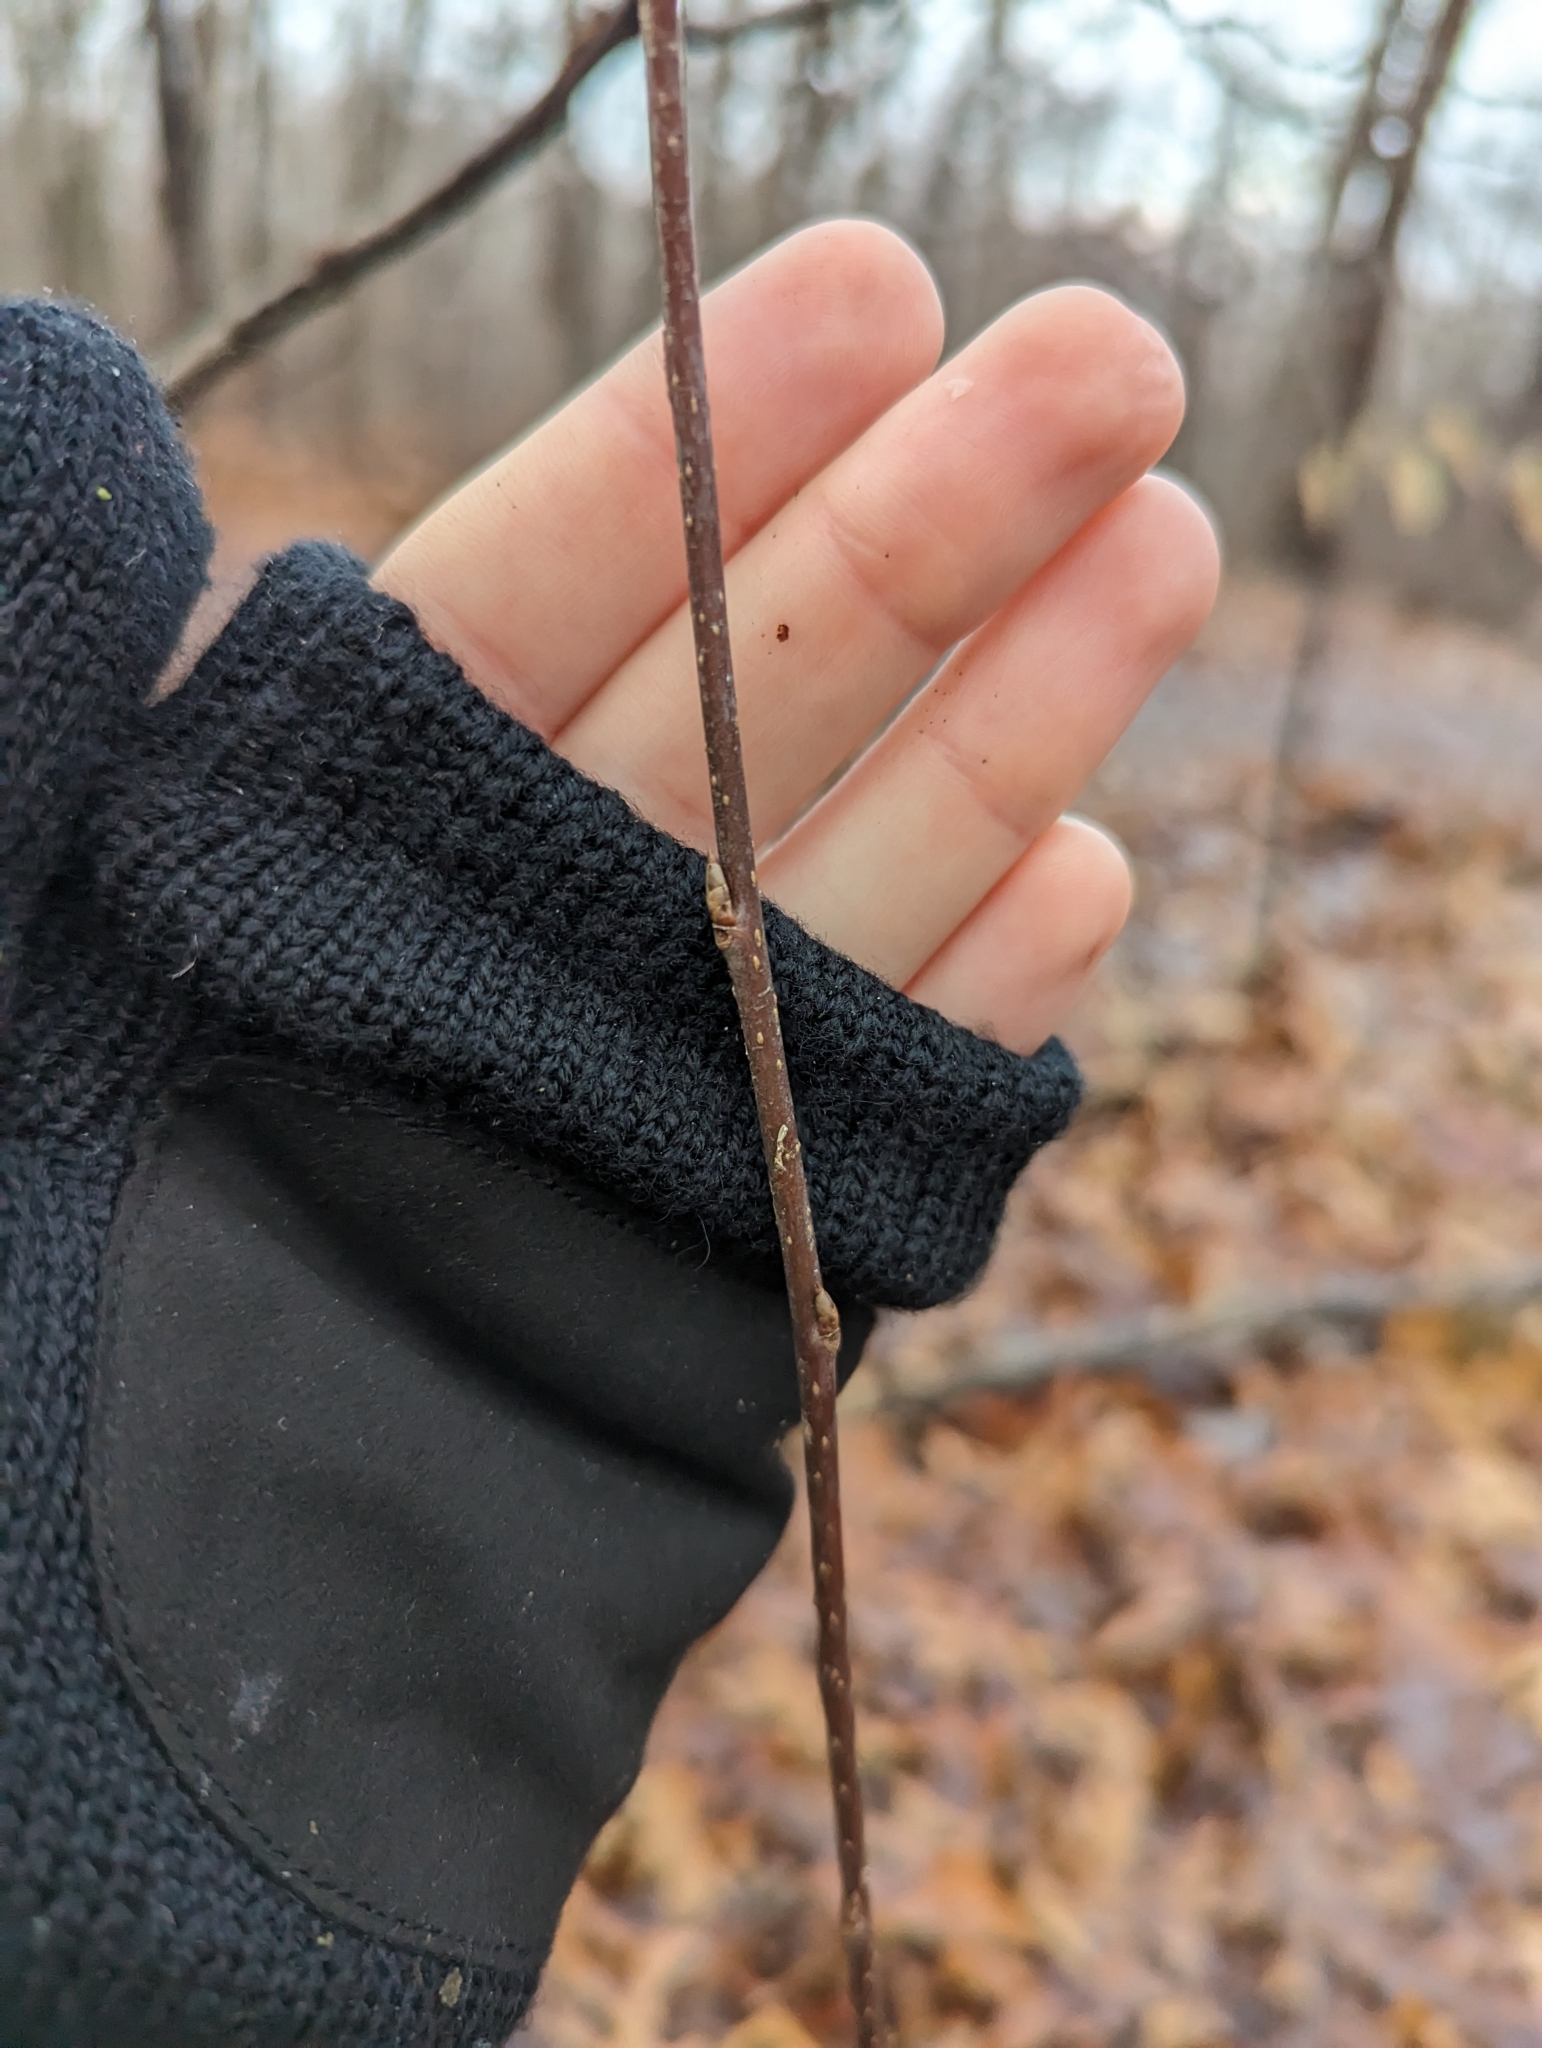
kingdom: Fungi
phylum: Ascomycota
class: Dothideomycetes
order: Venturiales
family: Venturiaceae
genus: Apiosporina
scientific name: Apiosporina morbosa
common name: Black knot
